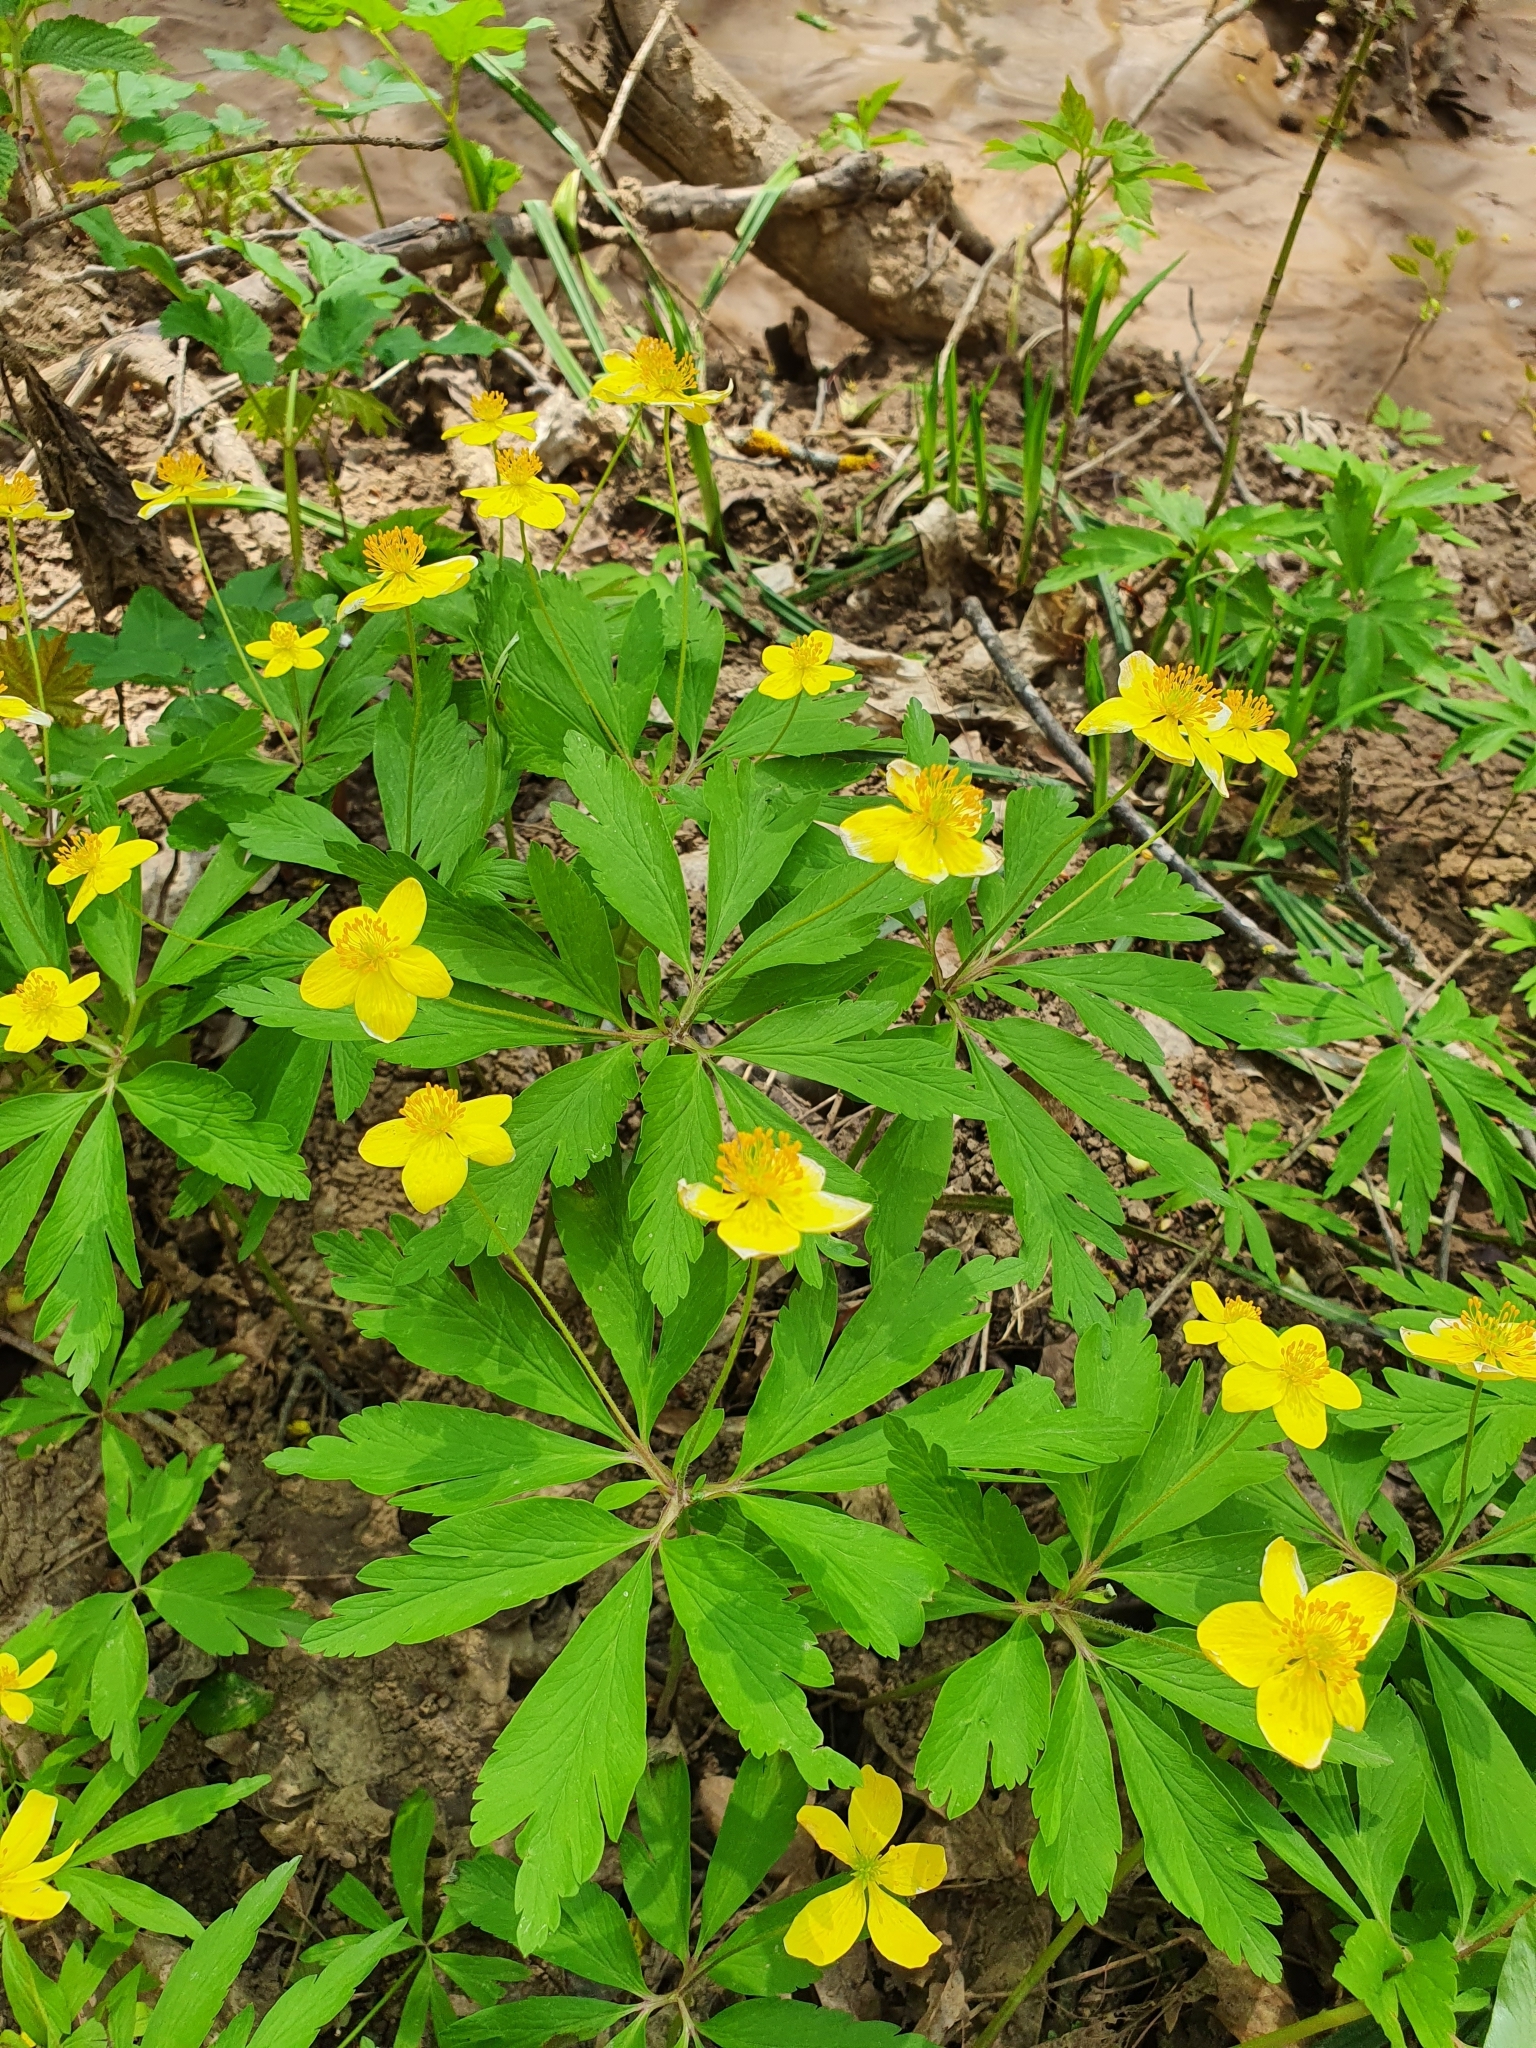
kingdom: Plantae
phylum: Tracheophyta
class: Magnoliopsida
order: Ranunculales
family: Ranunculaceae
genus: Anemone
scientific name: Anemone ranunculoides
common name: Yellow anemone
